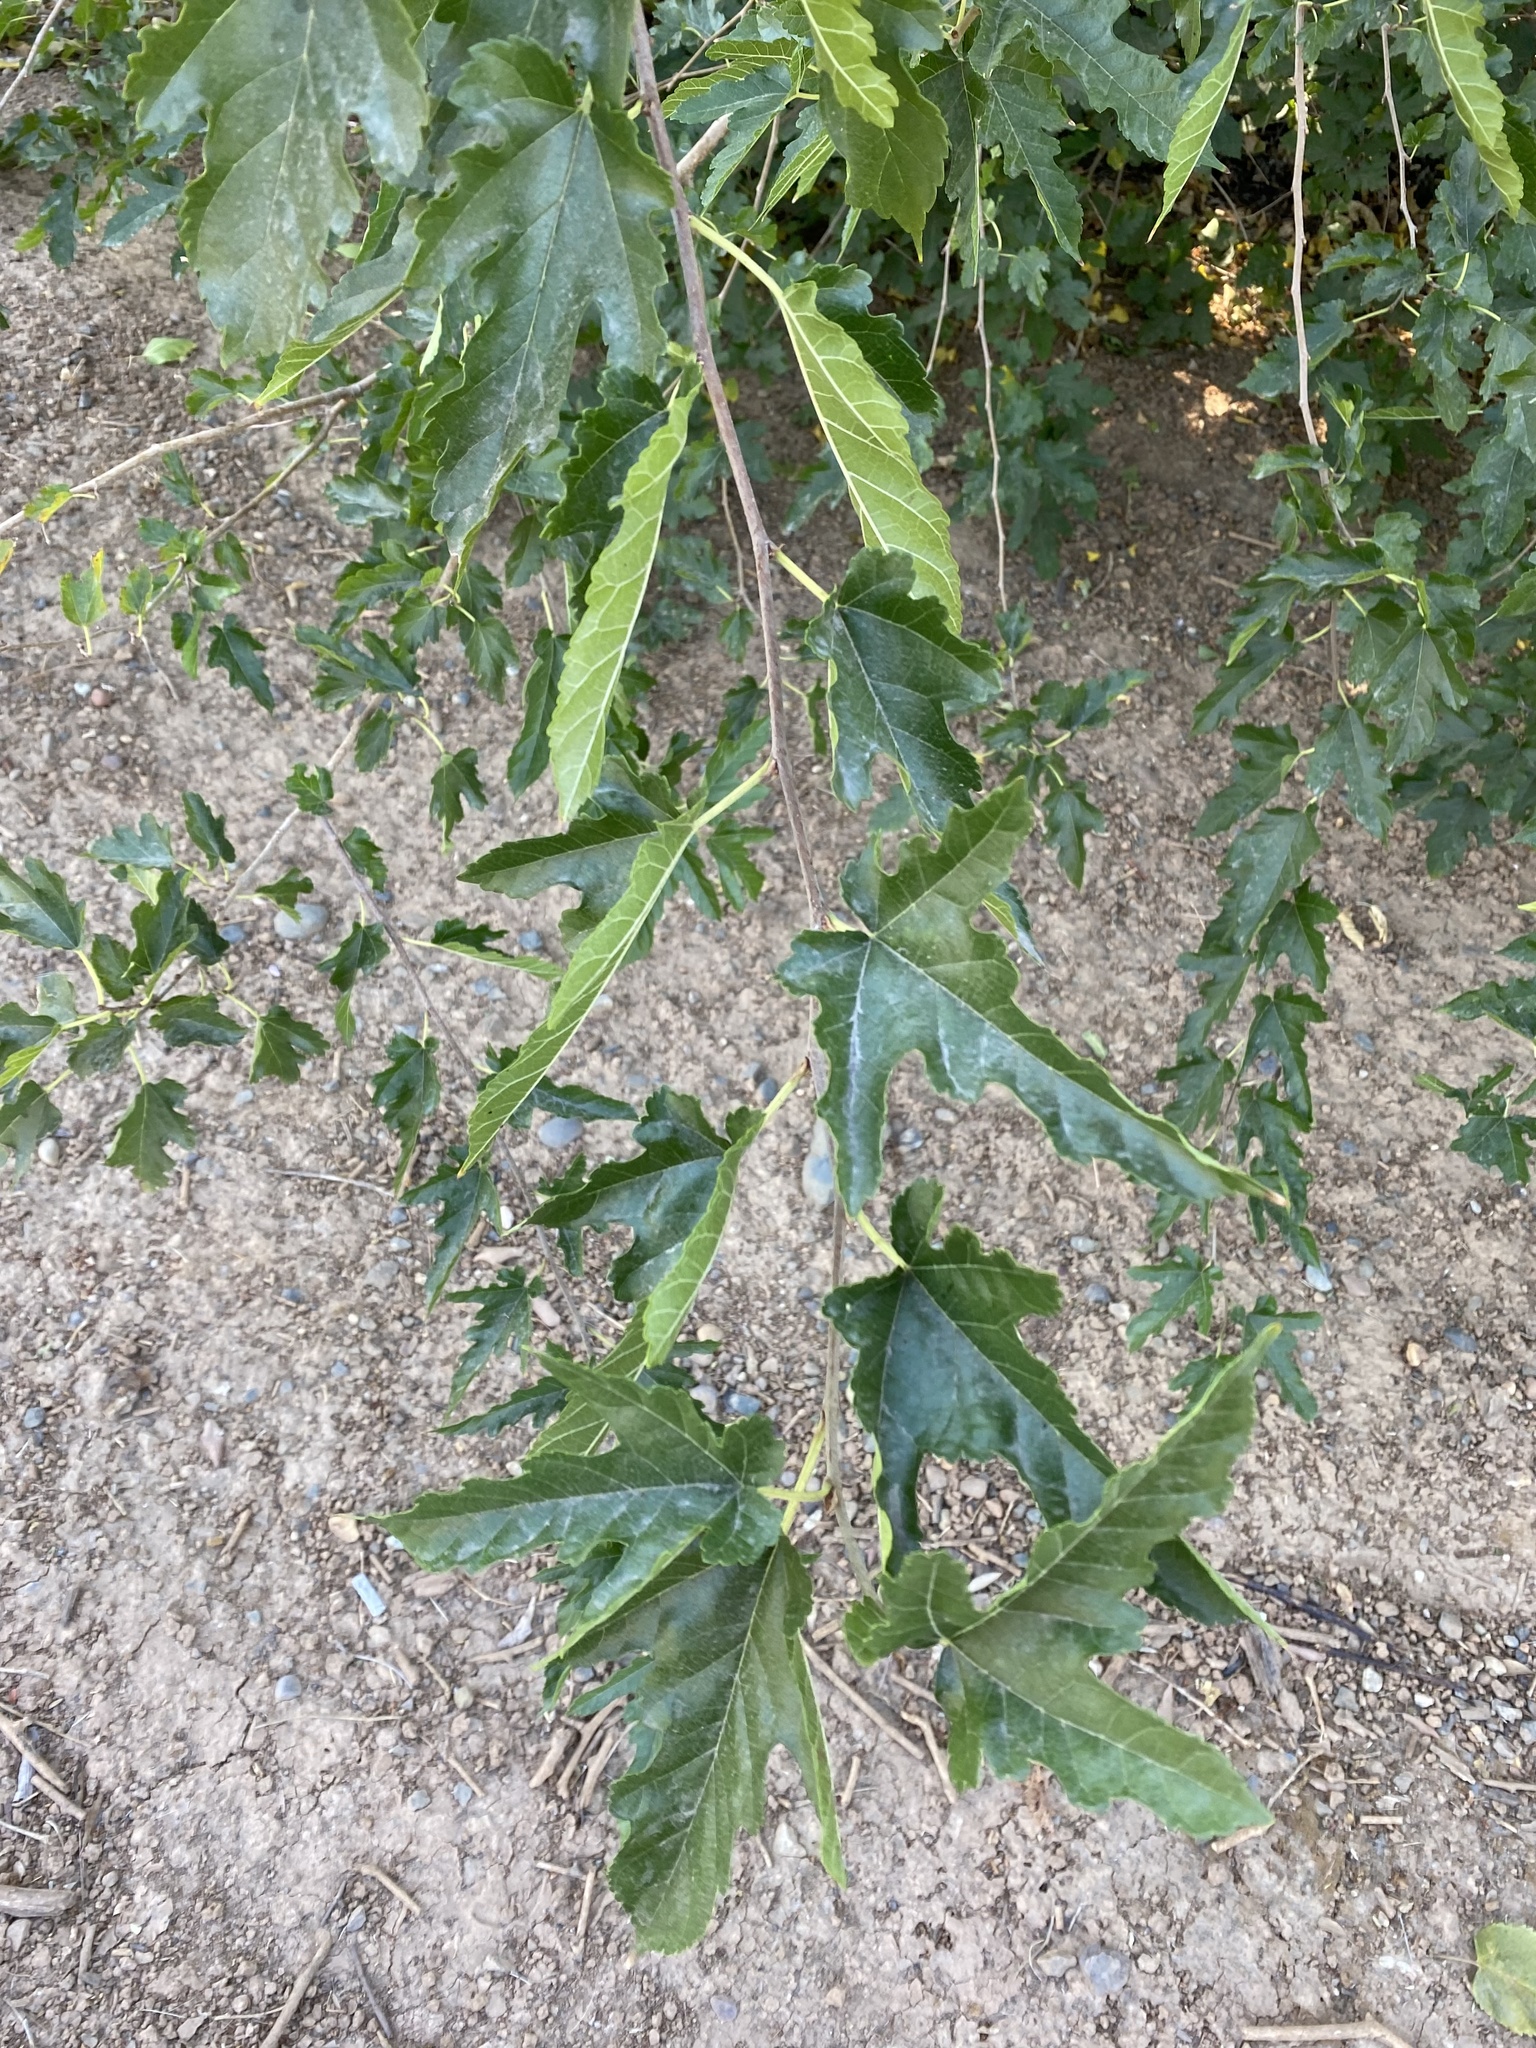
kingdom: Plantae
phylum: Tracheophyta
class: Magnoliopsida
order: Rosales
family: Moraceae
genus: Morus
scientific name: Morus alba
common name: White mulberry
